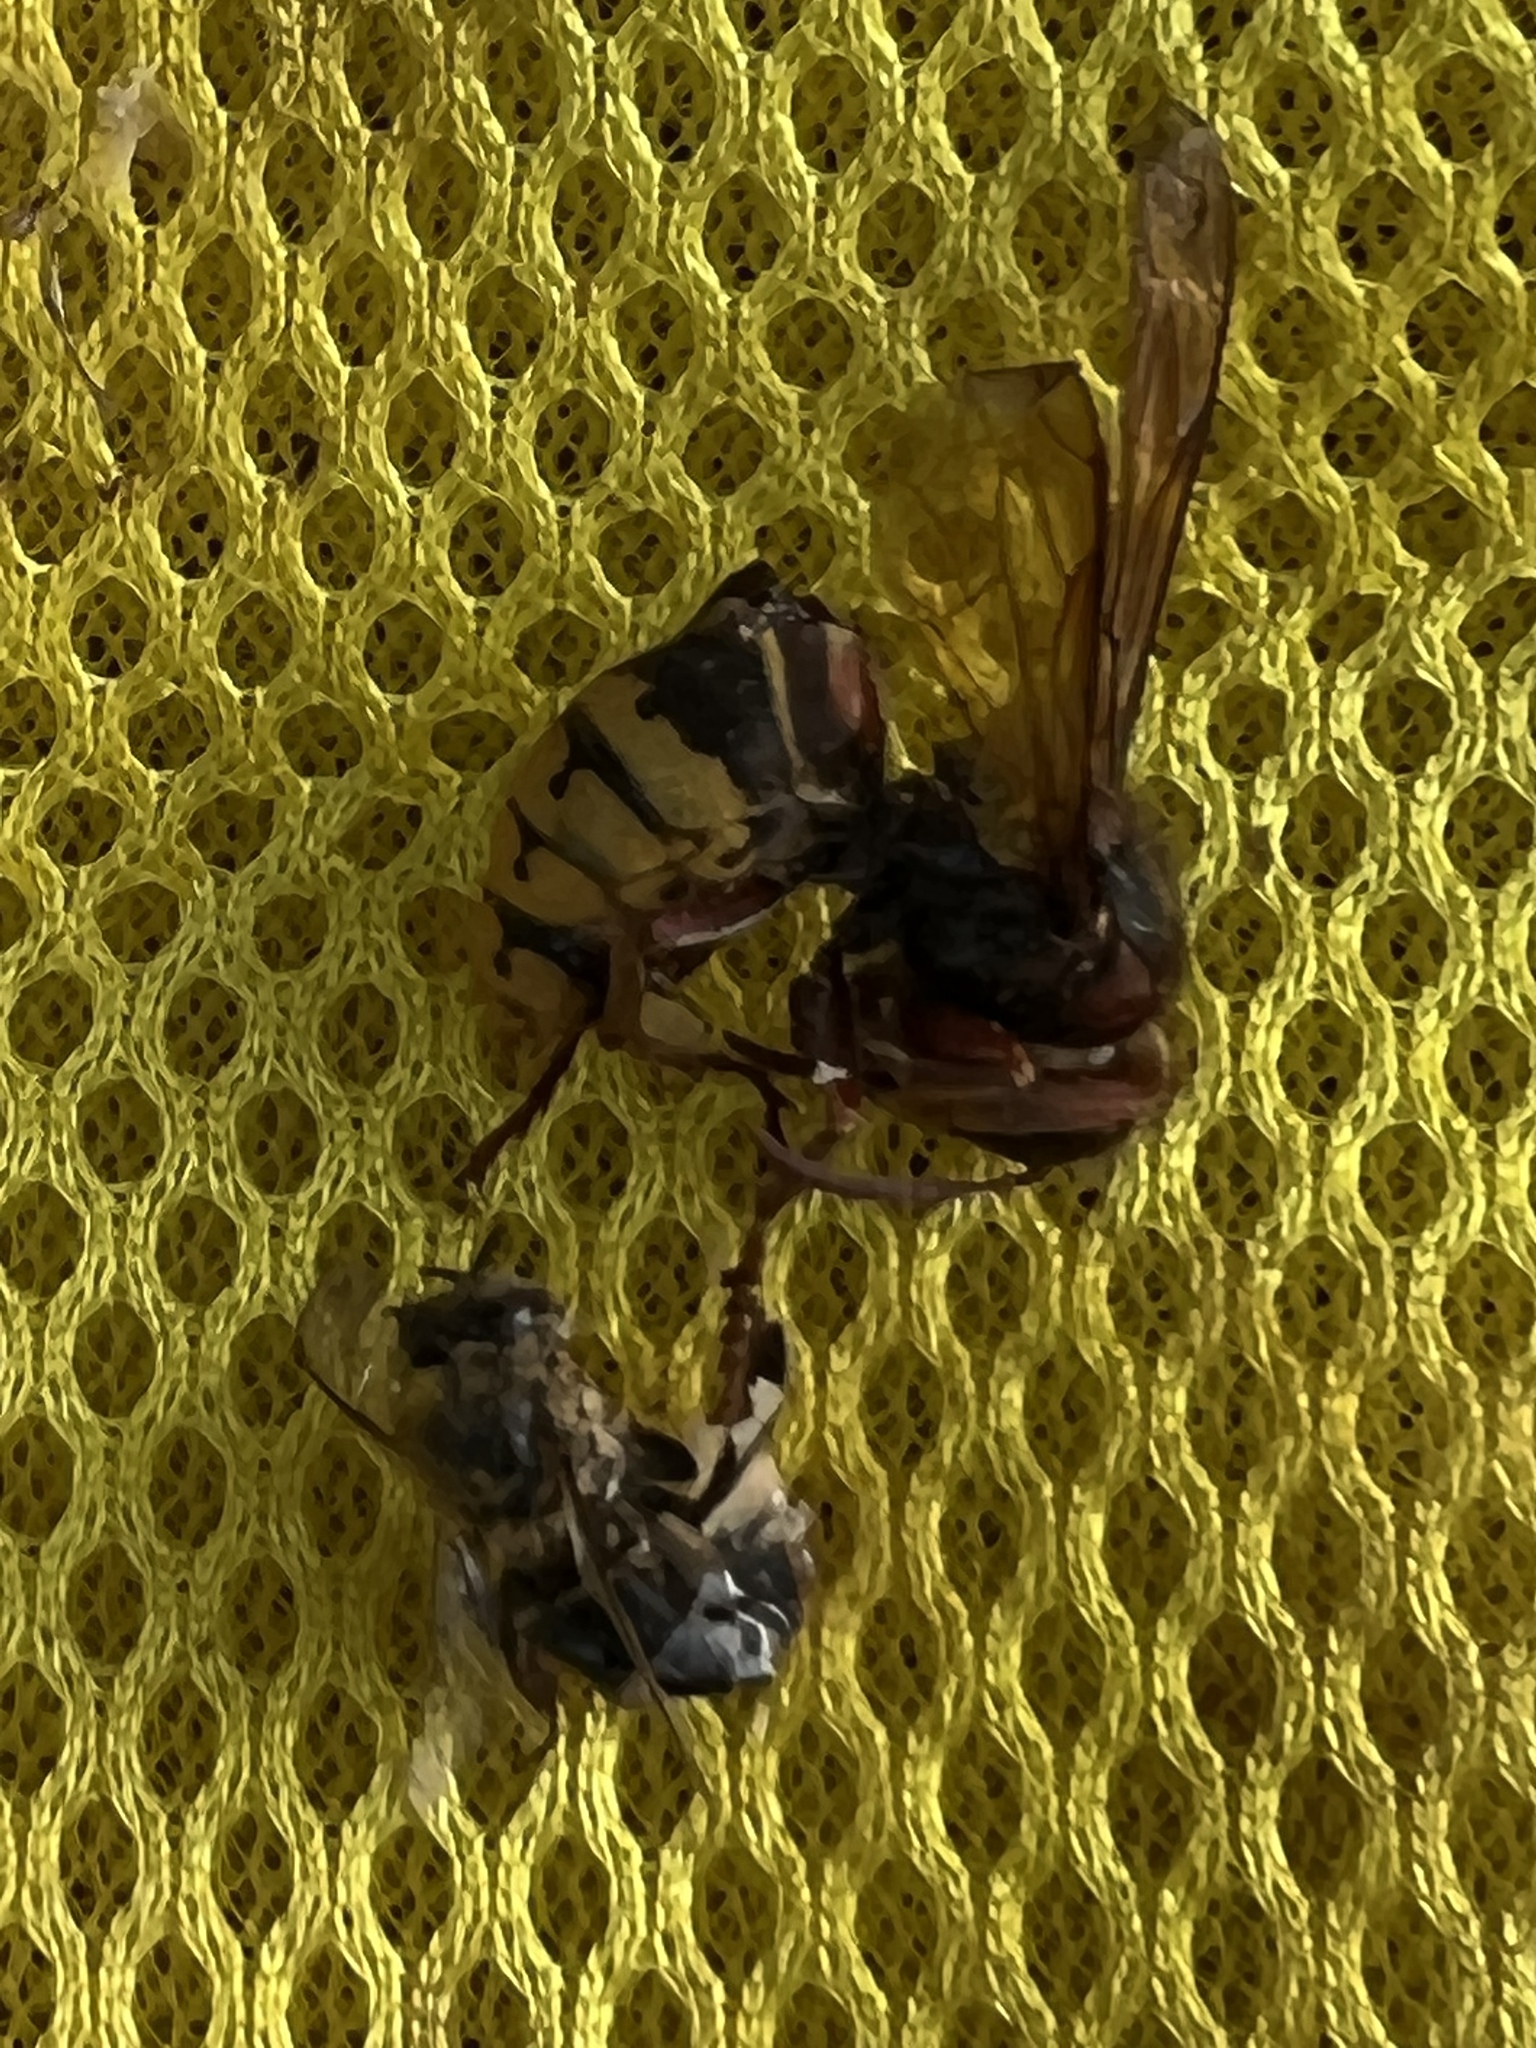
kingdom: Animalia
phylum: Arthropoda
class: Insecta
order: Hymenoptera
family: Vespidae
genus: Vespa
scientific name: Vespa crabro
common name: Hornet
